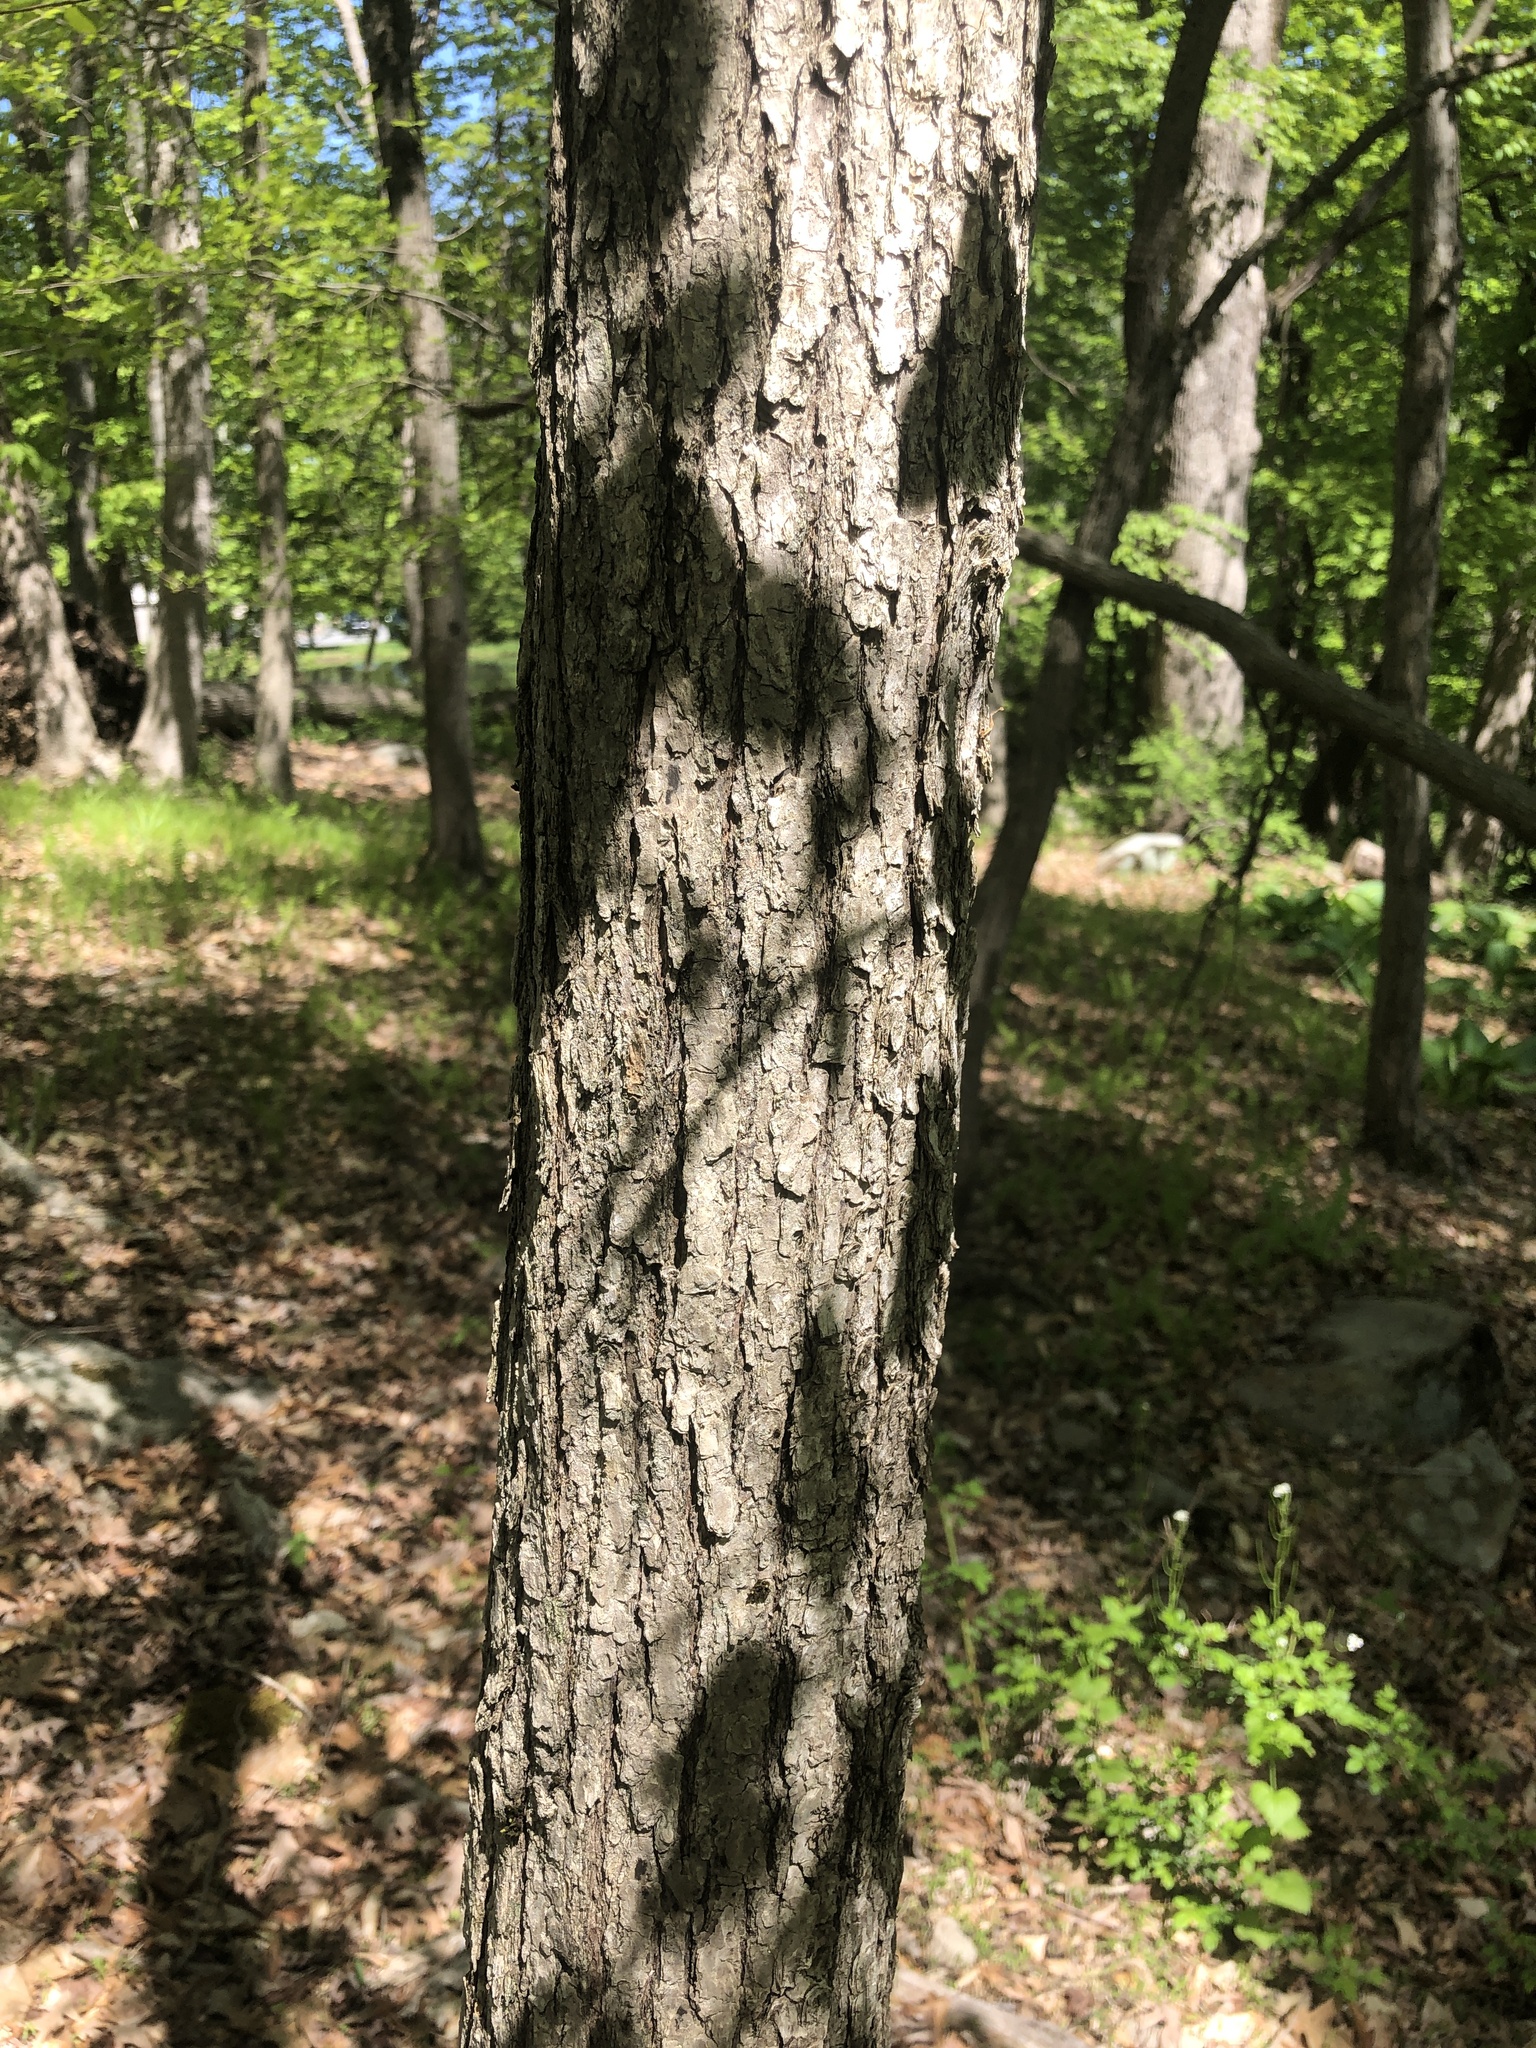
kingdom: Plantae
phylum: Tracheophyta
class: Magnoliopsida
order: Cornales
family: Nyssaceae
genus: Nyssa
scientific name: Nyssa sylvatica
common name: Black tupelo
